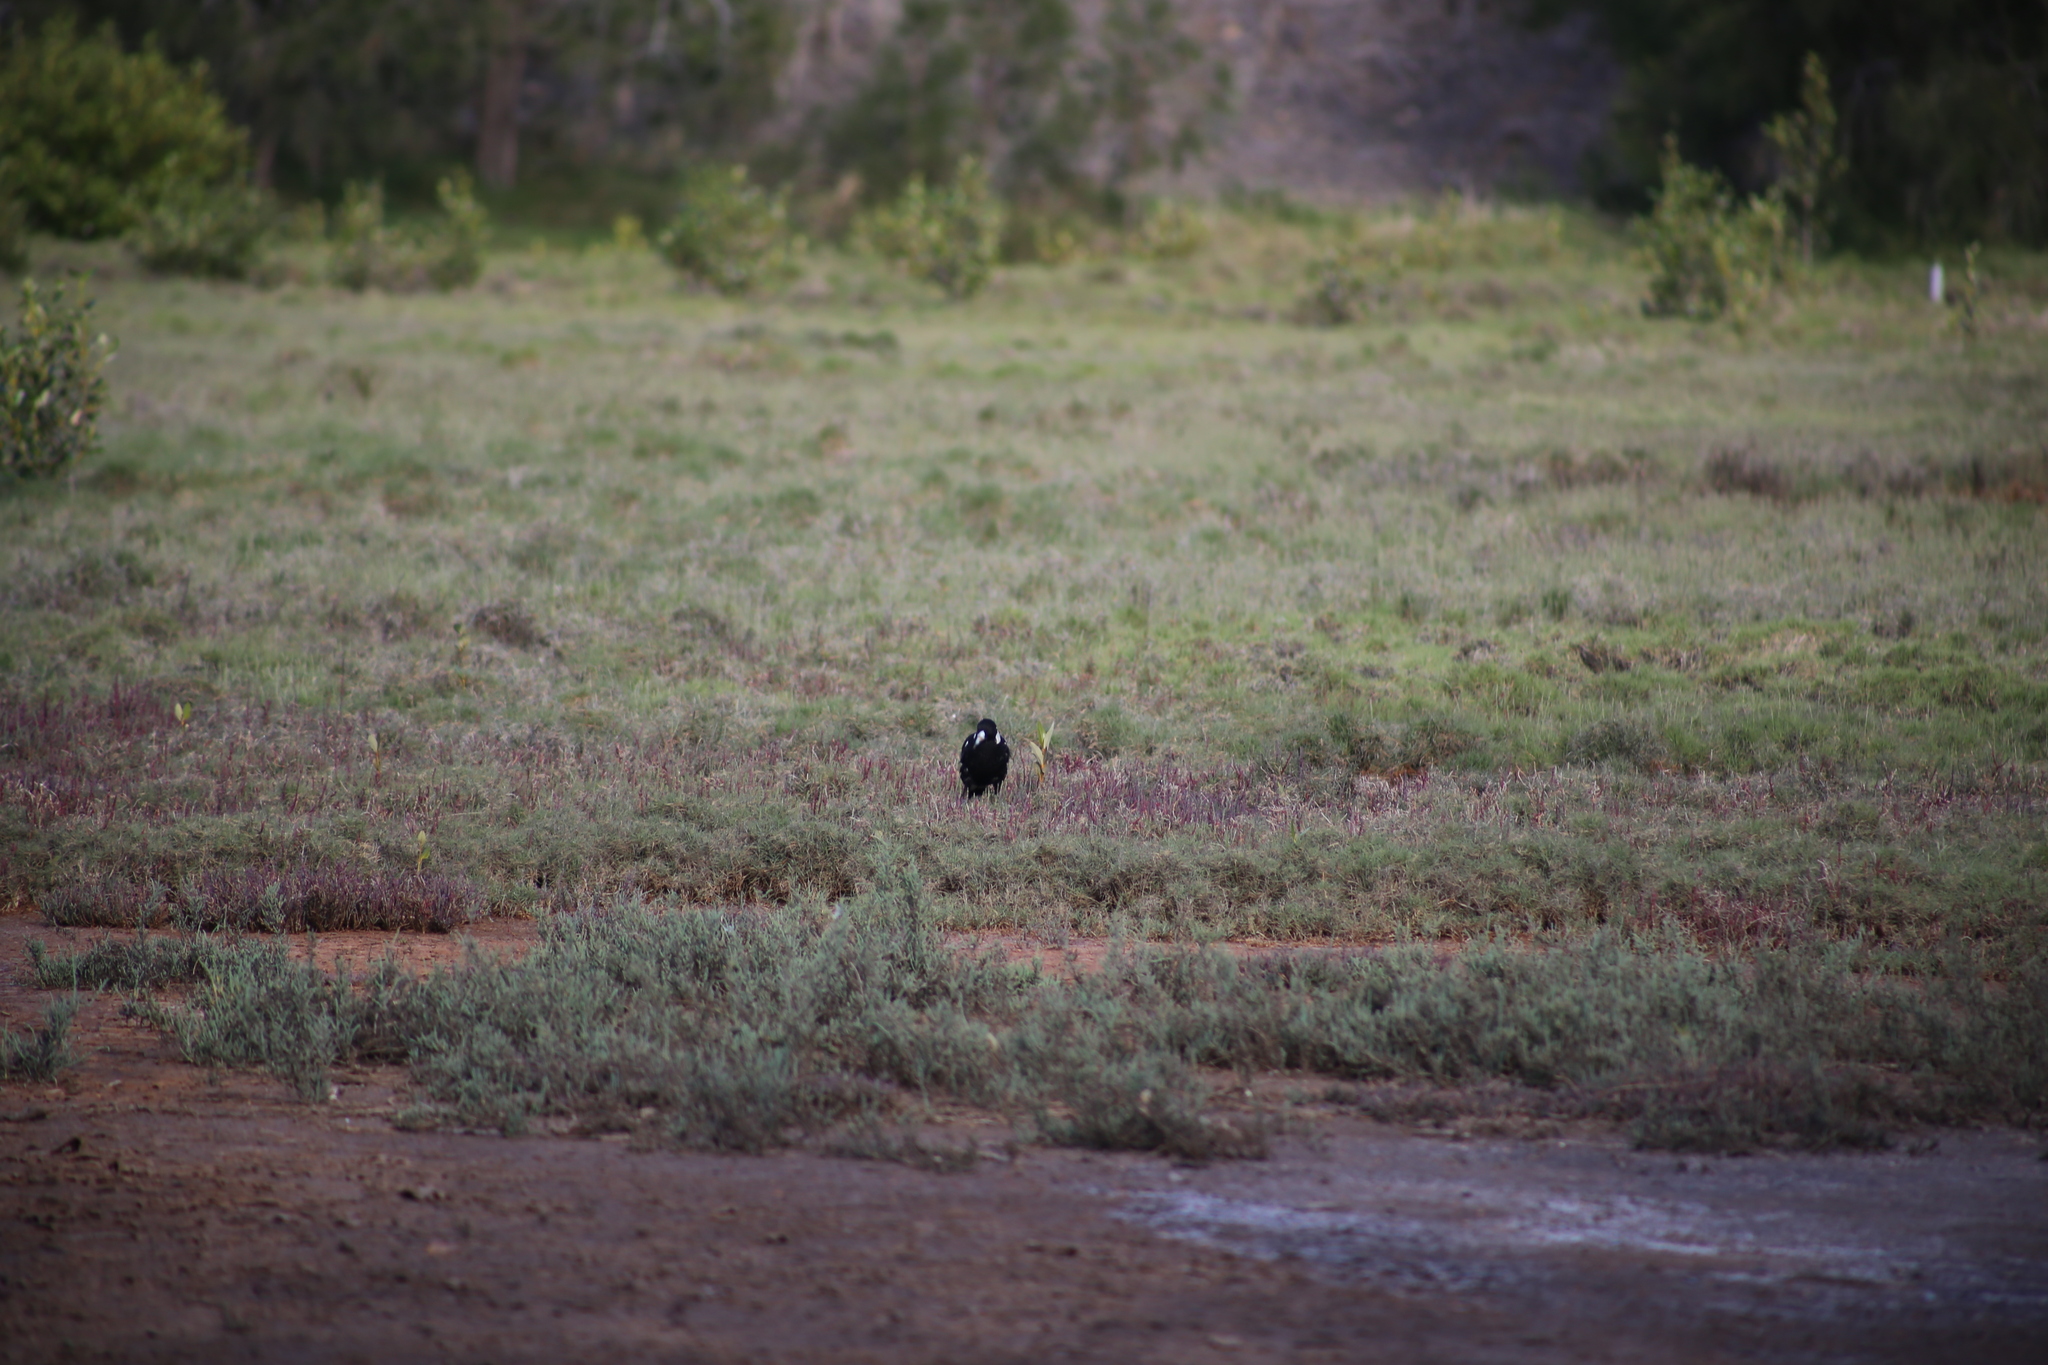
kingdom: Animalia
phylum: Chordata
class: Aves
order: Passeriformes
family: Cracticidae
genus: Gymnorhina
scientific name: Gymnorhina tibicen
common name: Australian magpie
